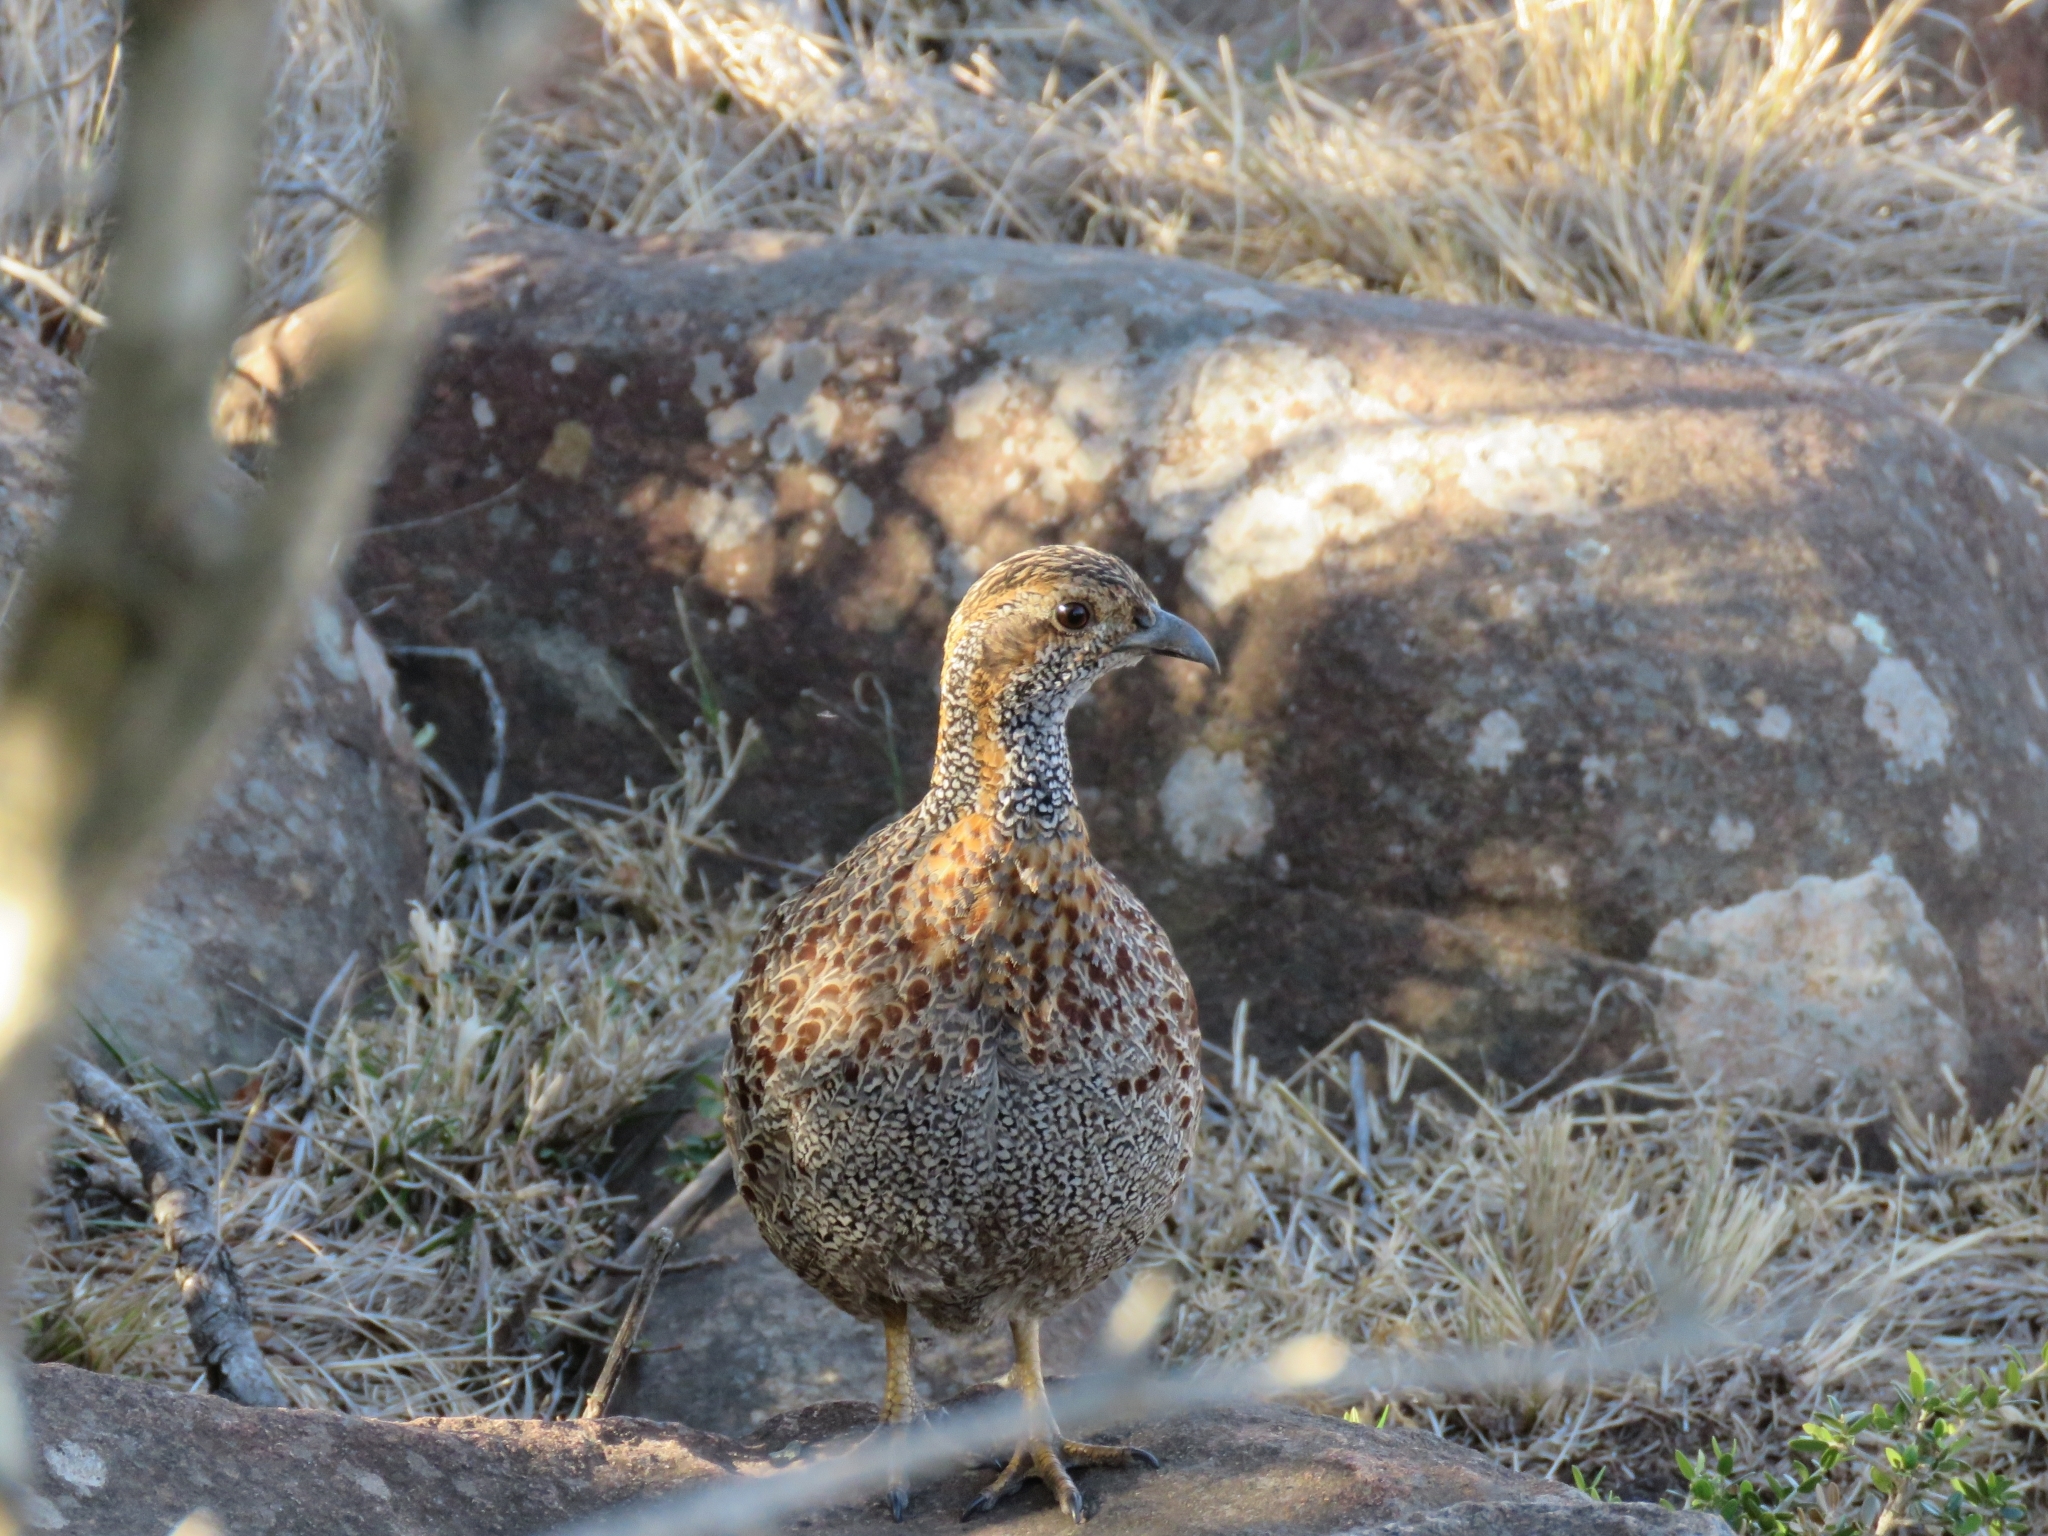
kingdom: Animalia
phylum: Chordata
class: Aves
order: Galliformes
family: Phasianidae
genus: Scleroptila
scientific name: Scleroptila afra
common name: Grey-winged francolin
